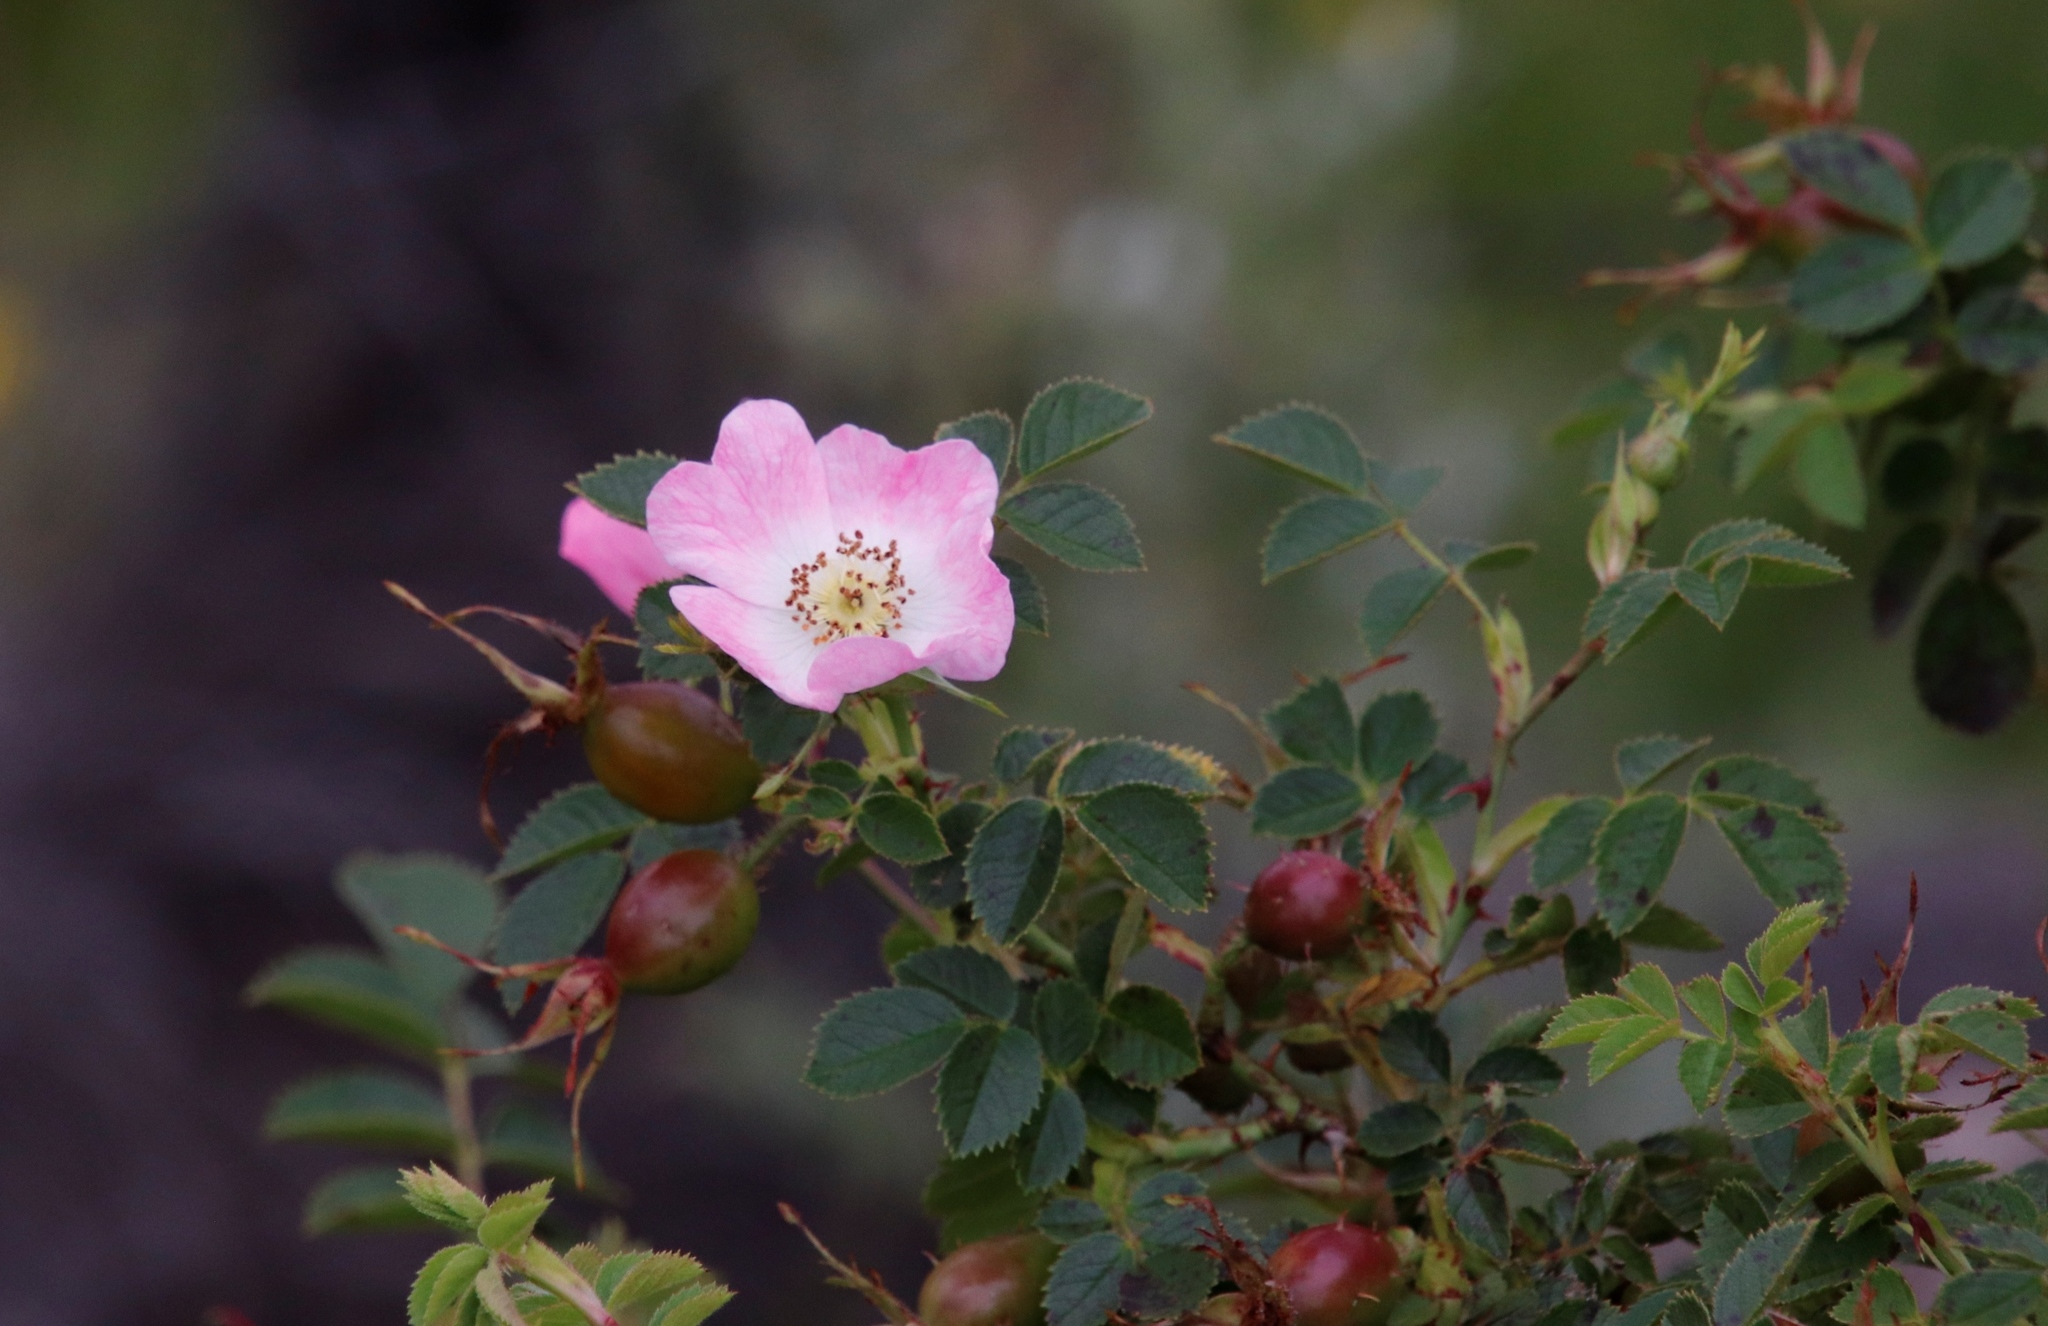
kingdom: Plantae
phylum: Tracheophyta
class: Magnoliopsida
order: Rosales
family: Rosaceae
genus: Rosa
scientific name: Rosa rubiginosa
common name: Sweet-briar
